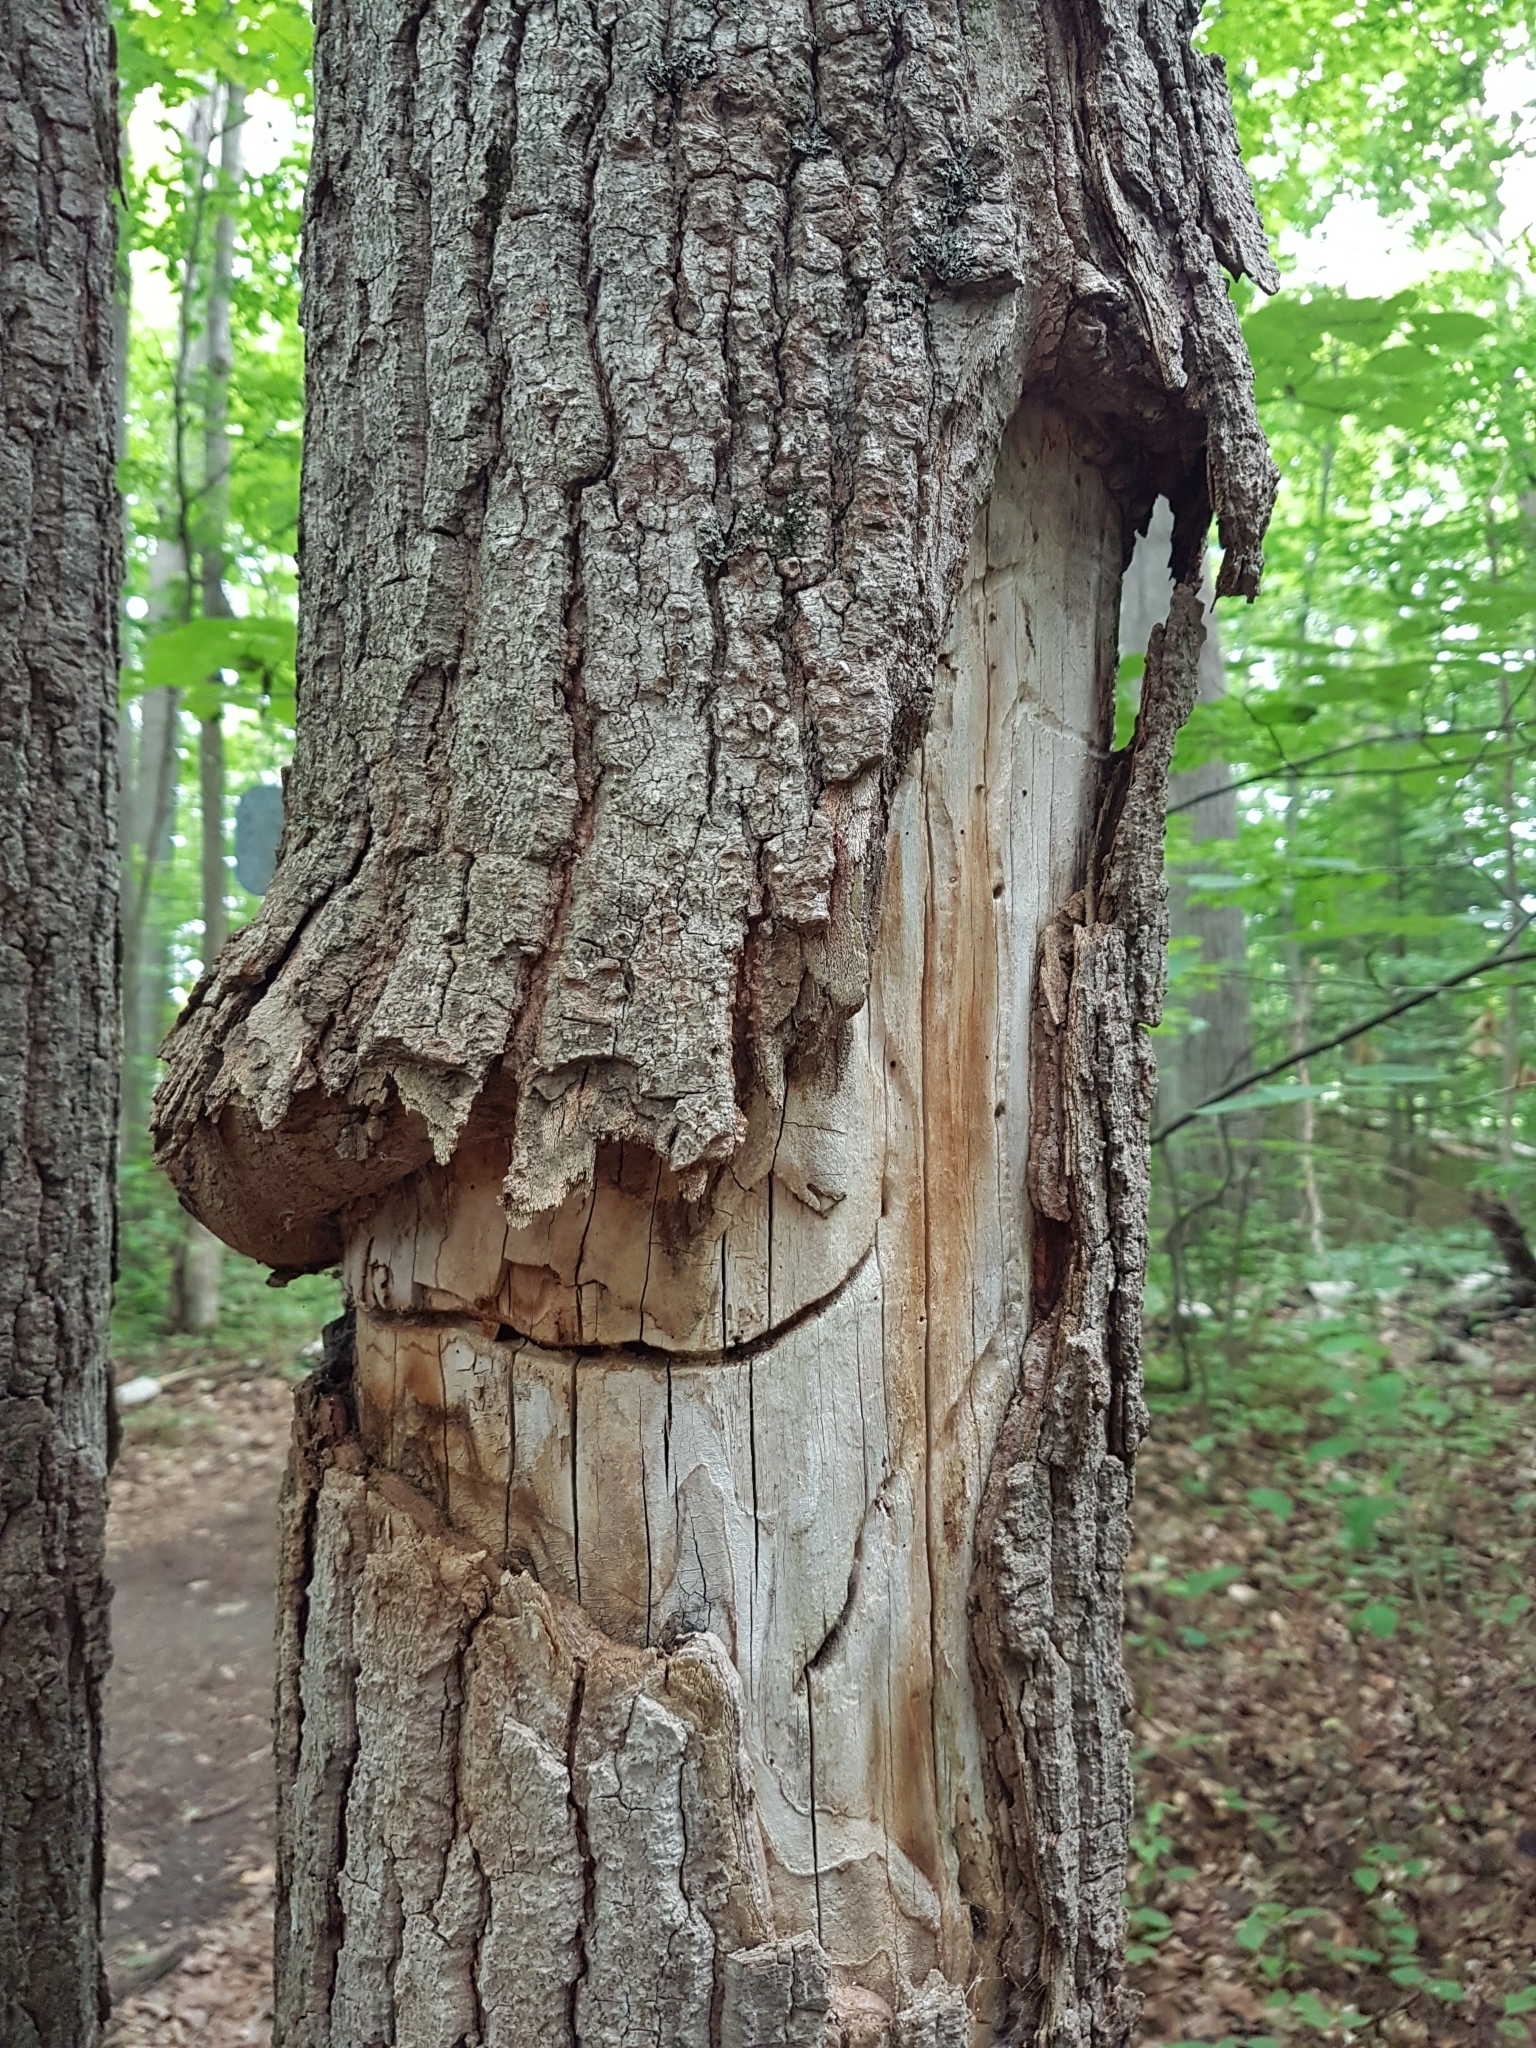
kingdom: Animalia
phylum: Arthropoda
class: Insecta
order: Coleoptera
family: Cerambycidae
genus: Glycobius
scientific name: Glycobius speciosus
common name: Sugar maple borer
